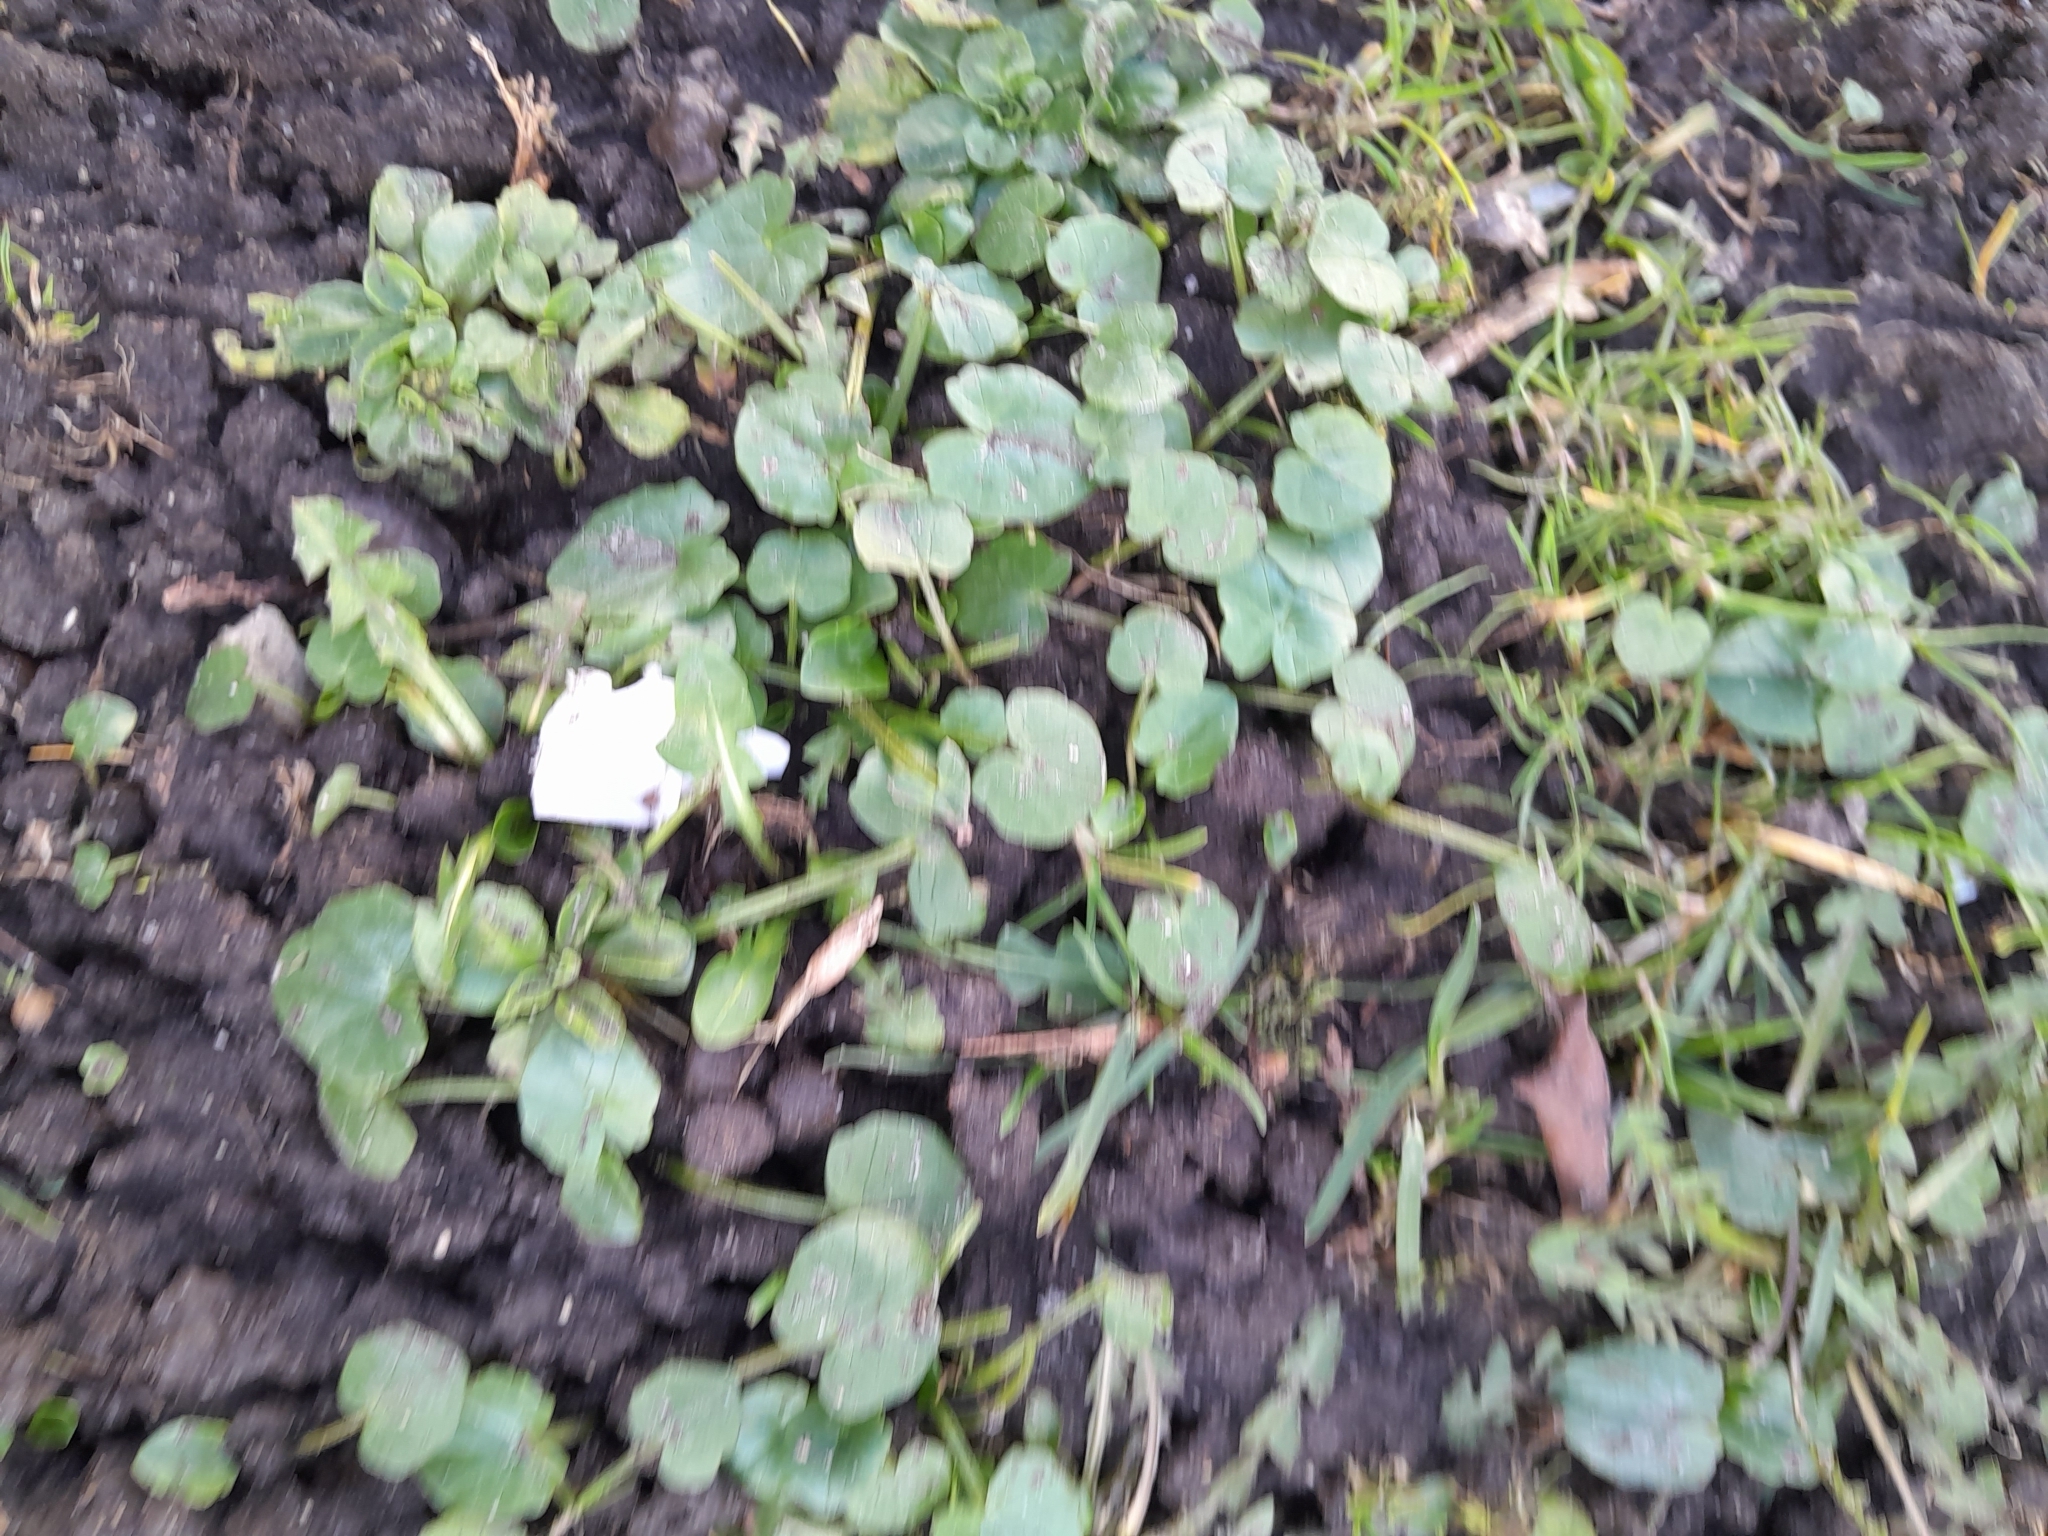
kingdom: Plantae
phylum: Tracheophyta
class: Magnoliopsida
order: Ranunculales
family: Ranunculaceae
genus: Ficaria
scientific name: Ficaria verna
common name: Lesser celandine
